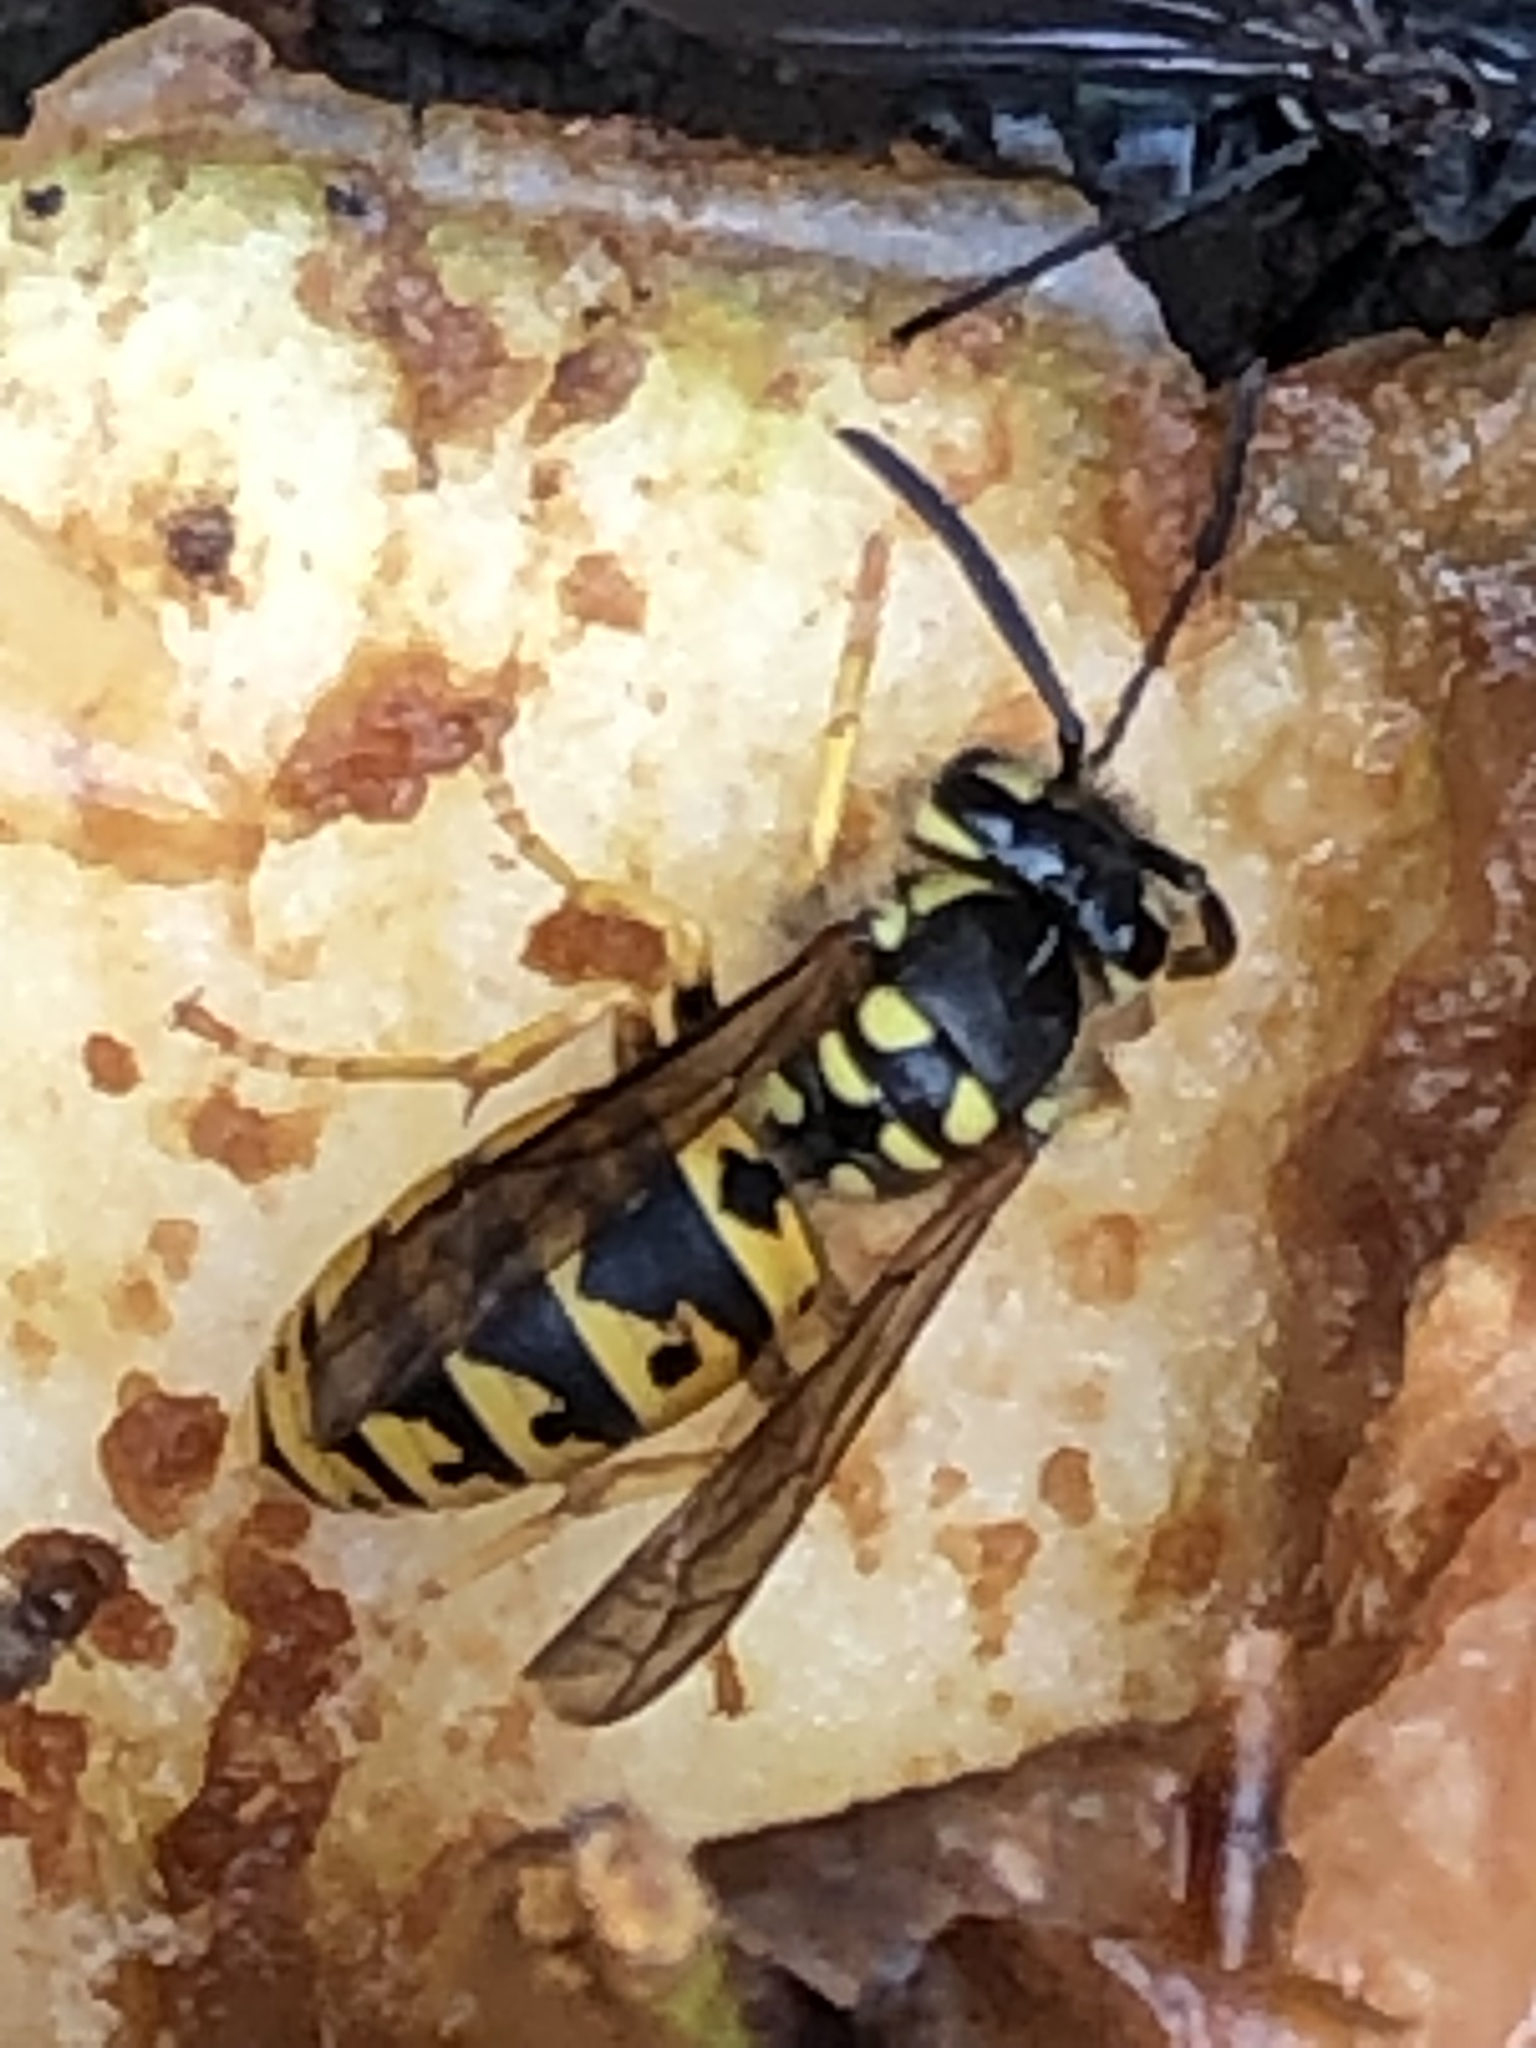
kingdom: Animalia
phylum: Arthropoda
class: Insecta
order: Hymenoptera
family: Vespidae
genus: Vespula
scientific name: Vespula germanica
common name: German wasp
